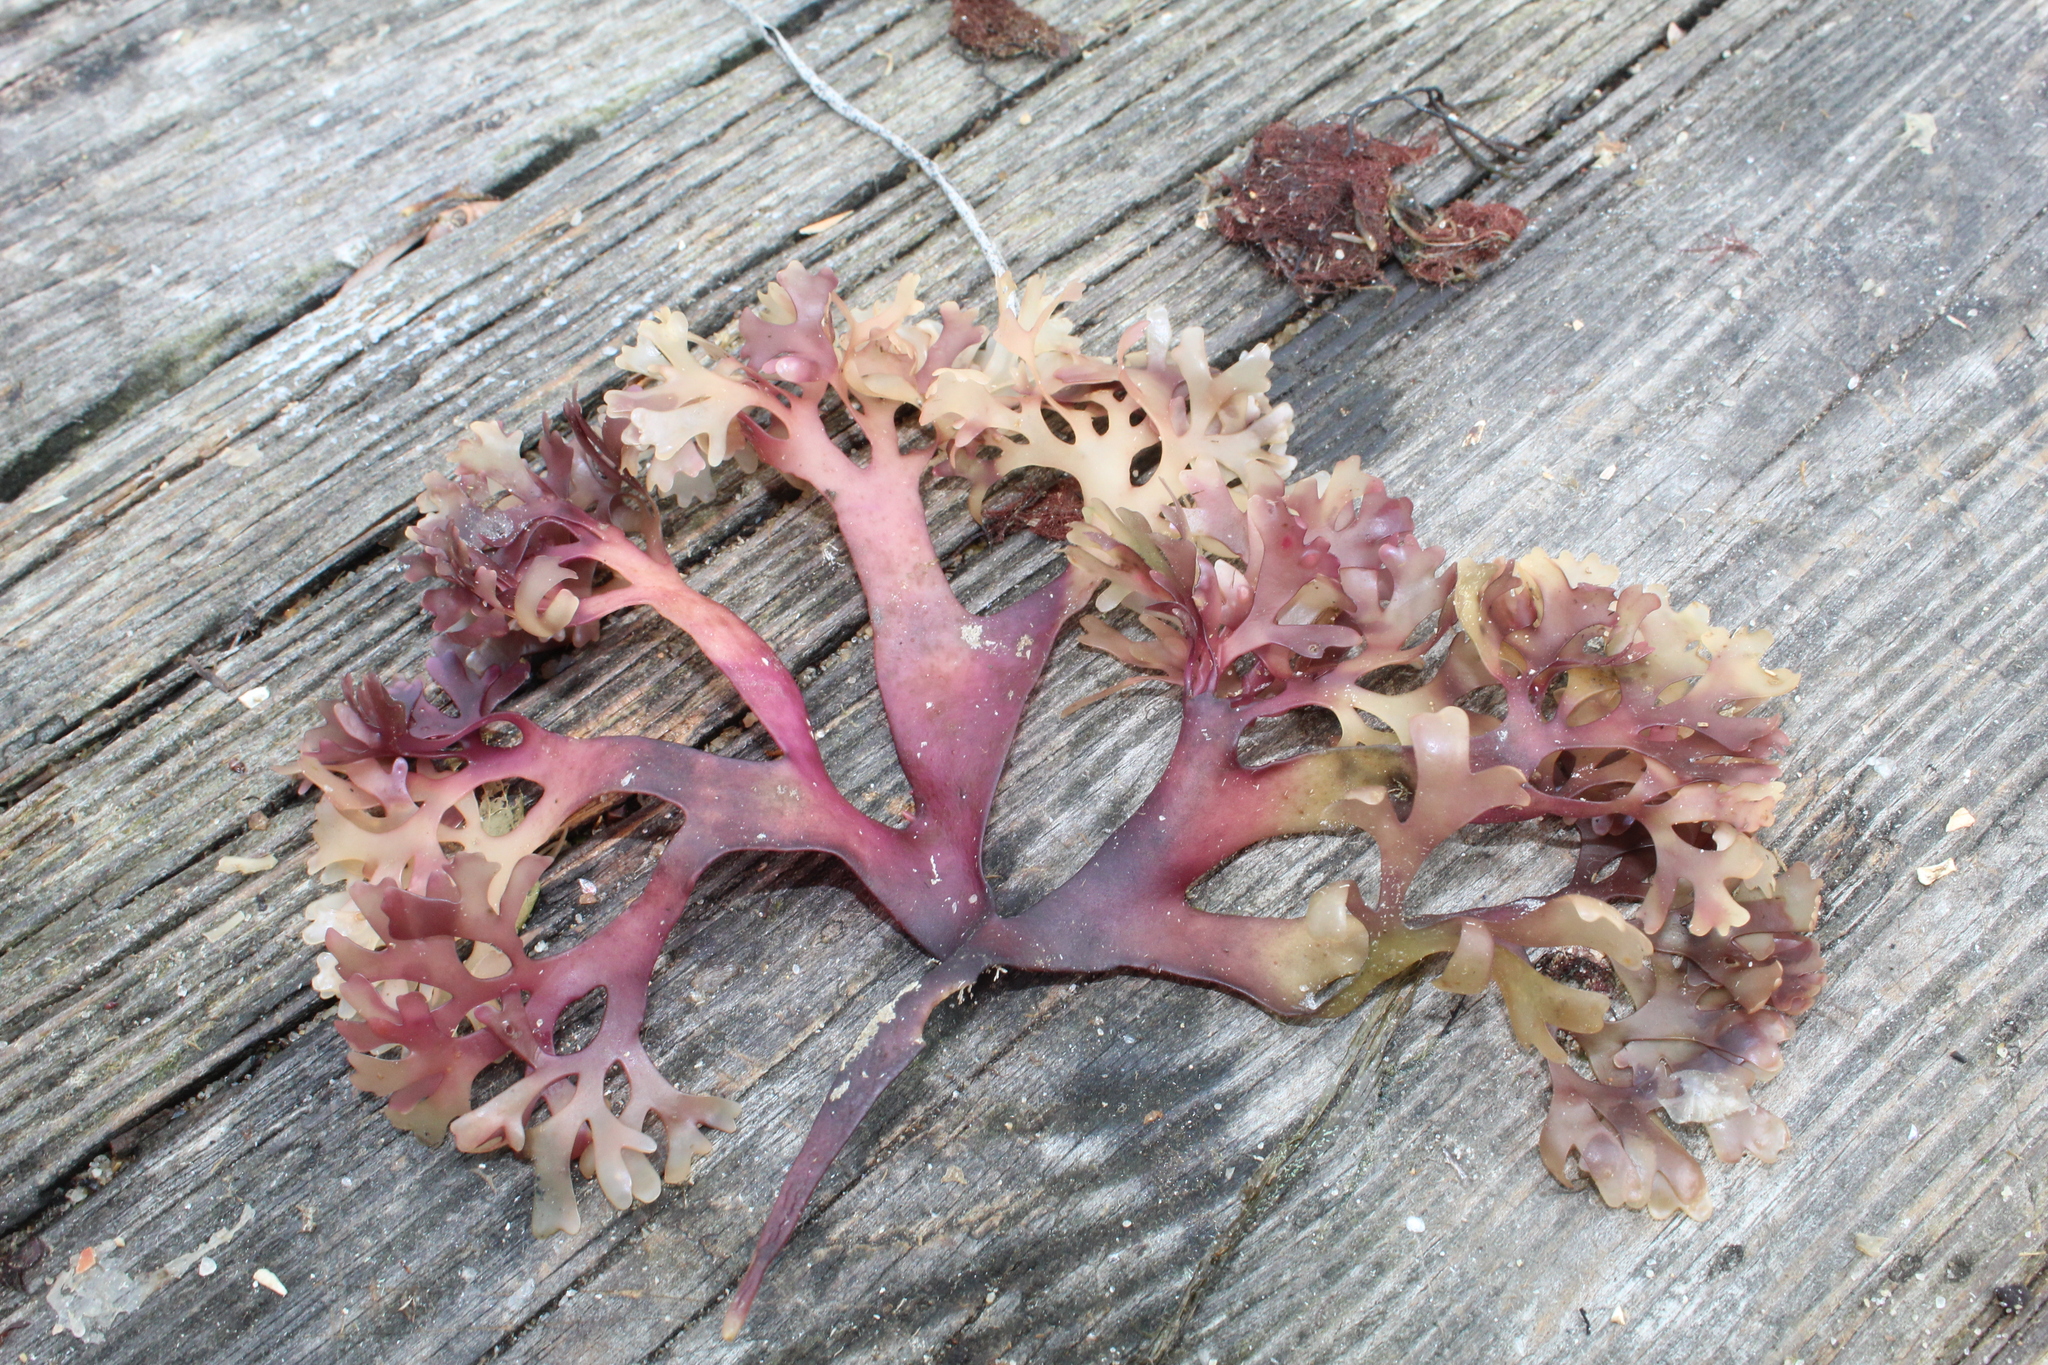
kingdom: Plantae
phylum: Rhodophyta
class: Florideophyceae
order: Gigartinales
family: Gigartinaceae
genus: Chondrus
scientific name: Chondrus crispus
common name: Carrageen
